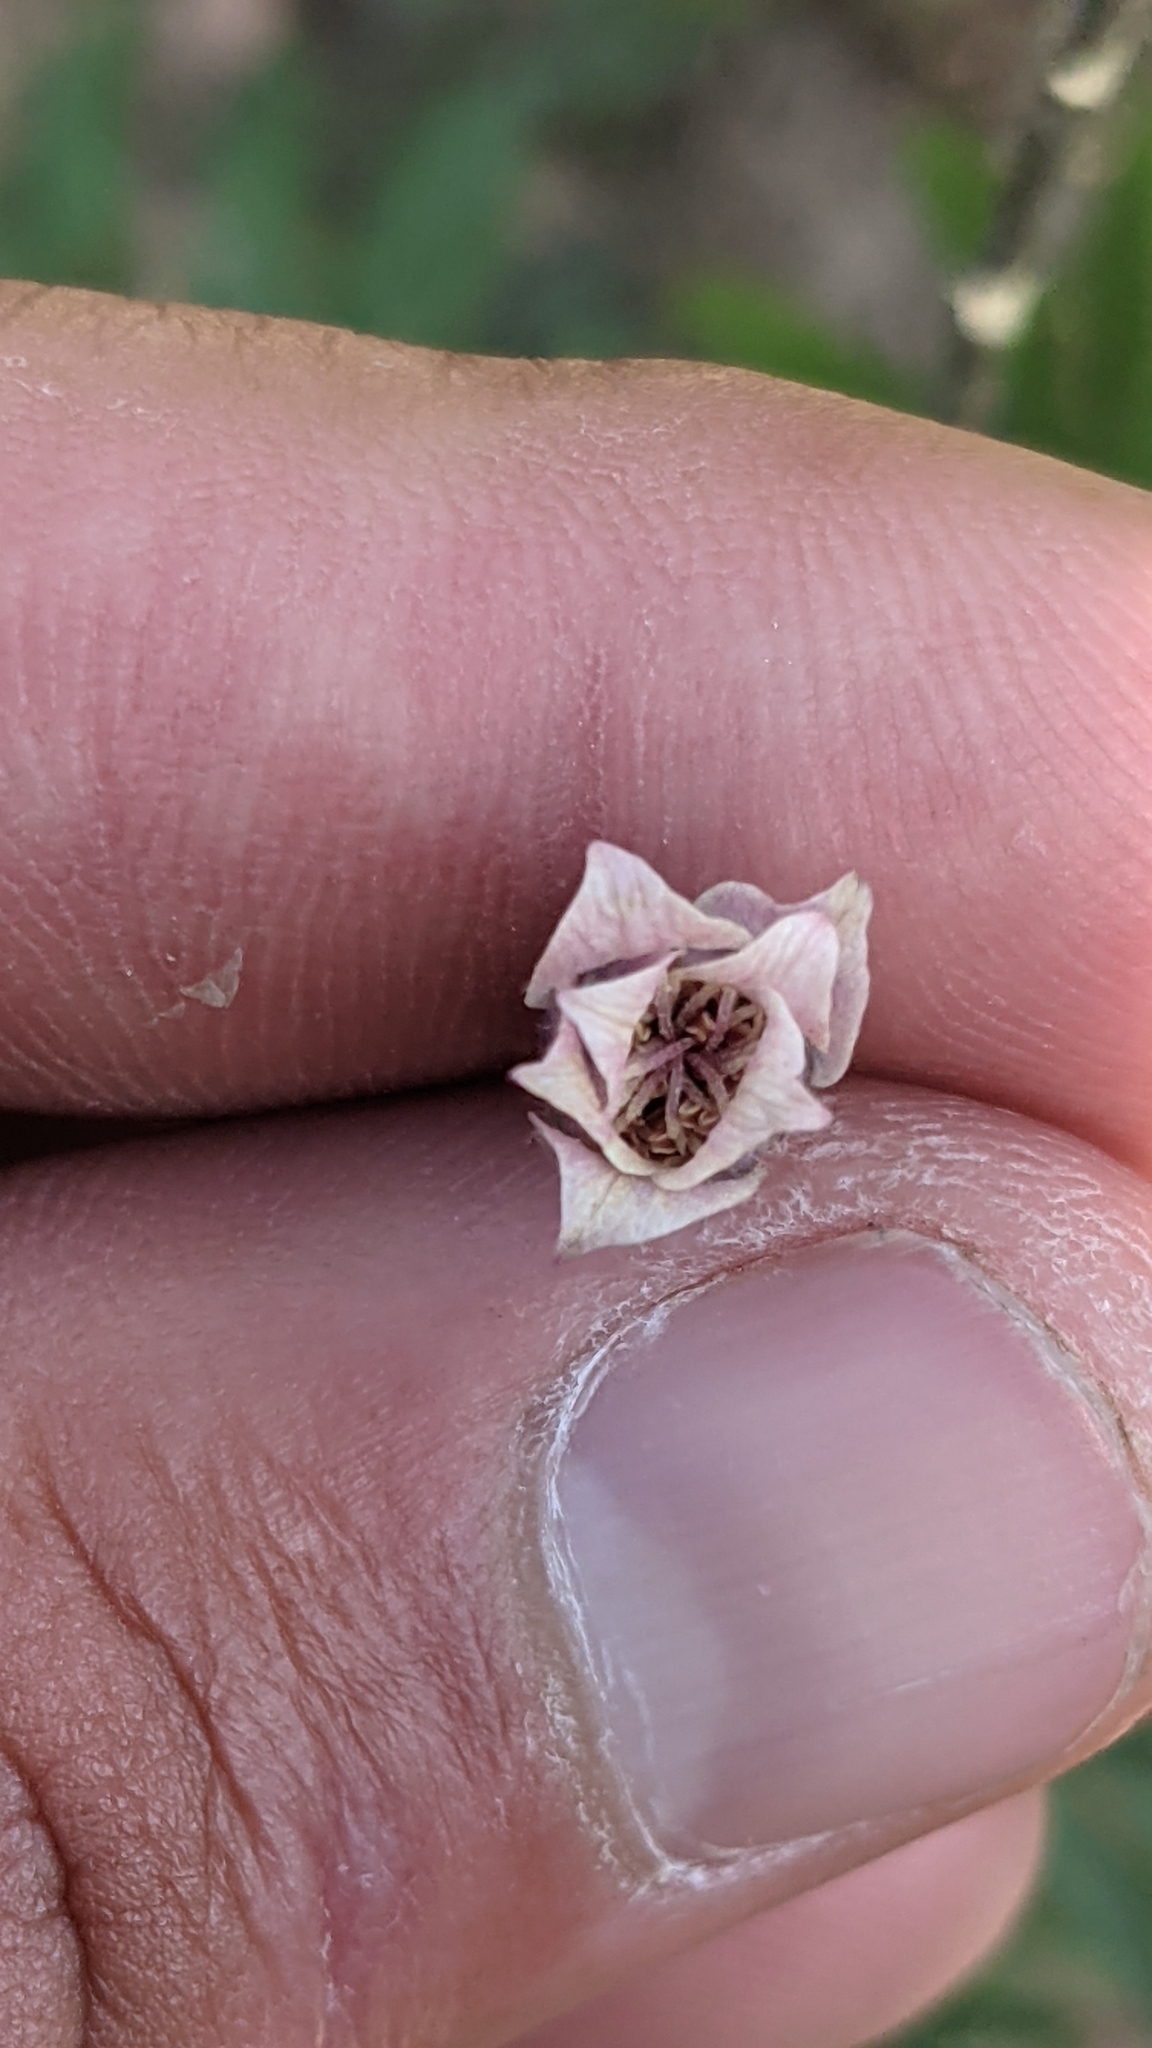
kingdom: Plantae
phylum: Tracheophyta
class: Magnoliopsida
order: Ranunculales
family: Ranunculaceae
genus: Anemone
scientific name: Anemone multifida
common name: Bird's-foot anemone
